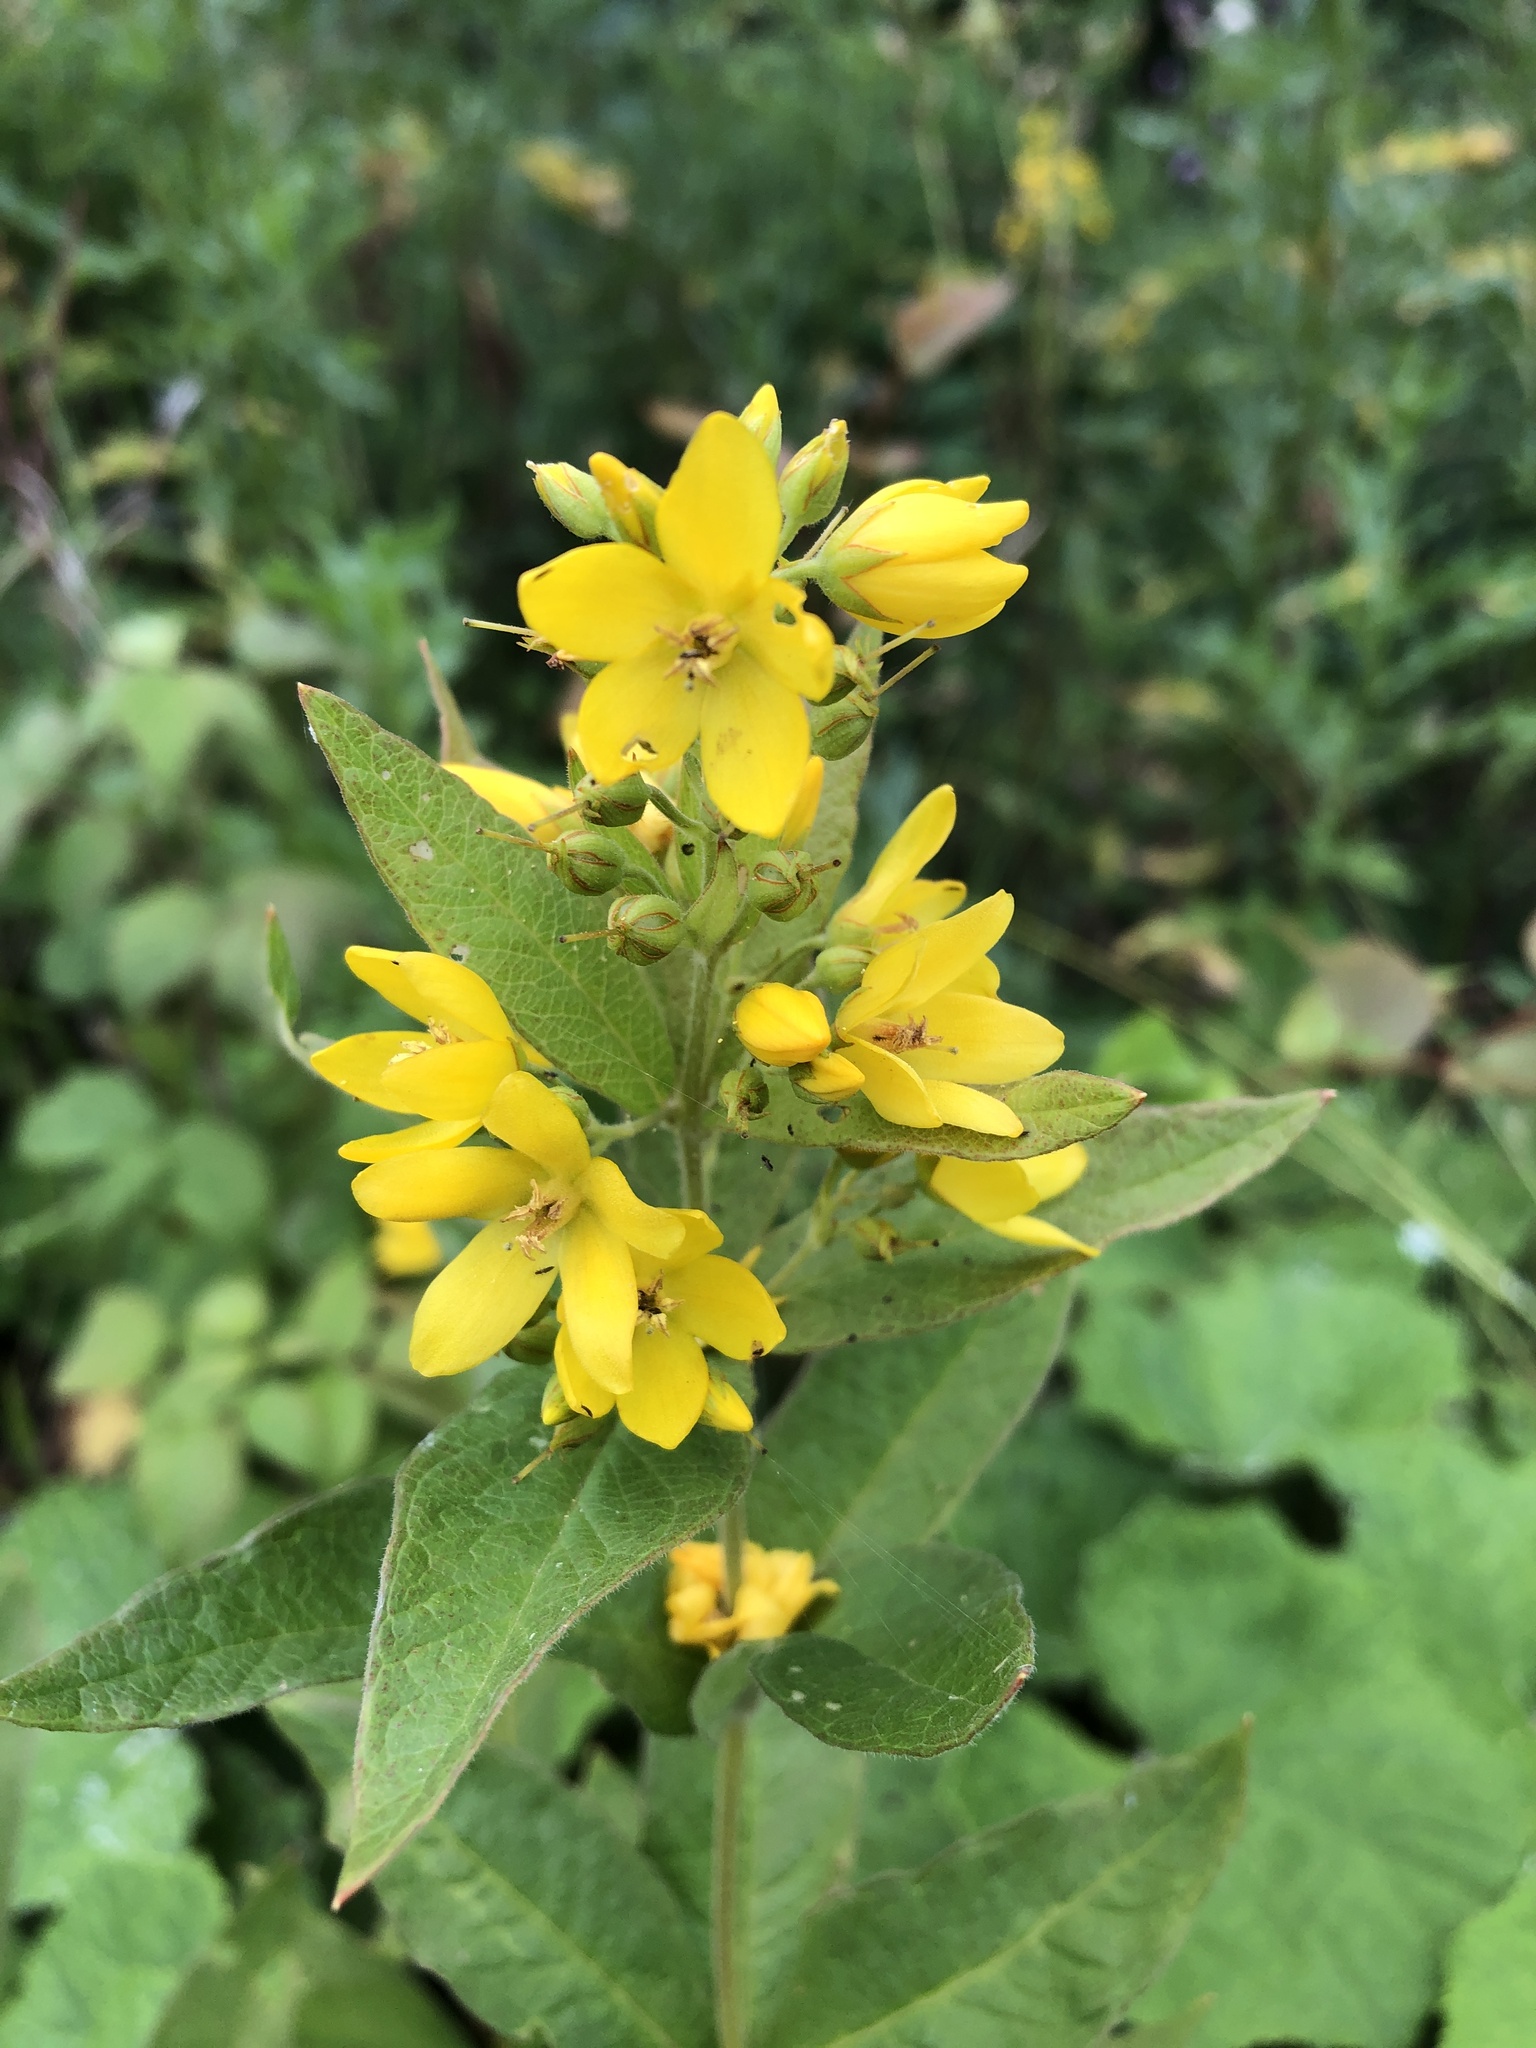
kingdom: Plantae
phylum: Tracheophyta
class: Magnoliopsida
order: Ericales
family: Primulaceae
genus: Lysimachia
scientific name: Lysimachia vulgaris
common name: Yellow loosestrife
